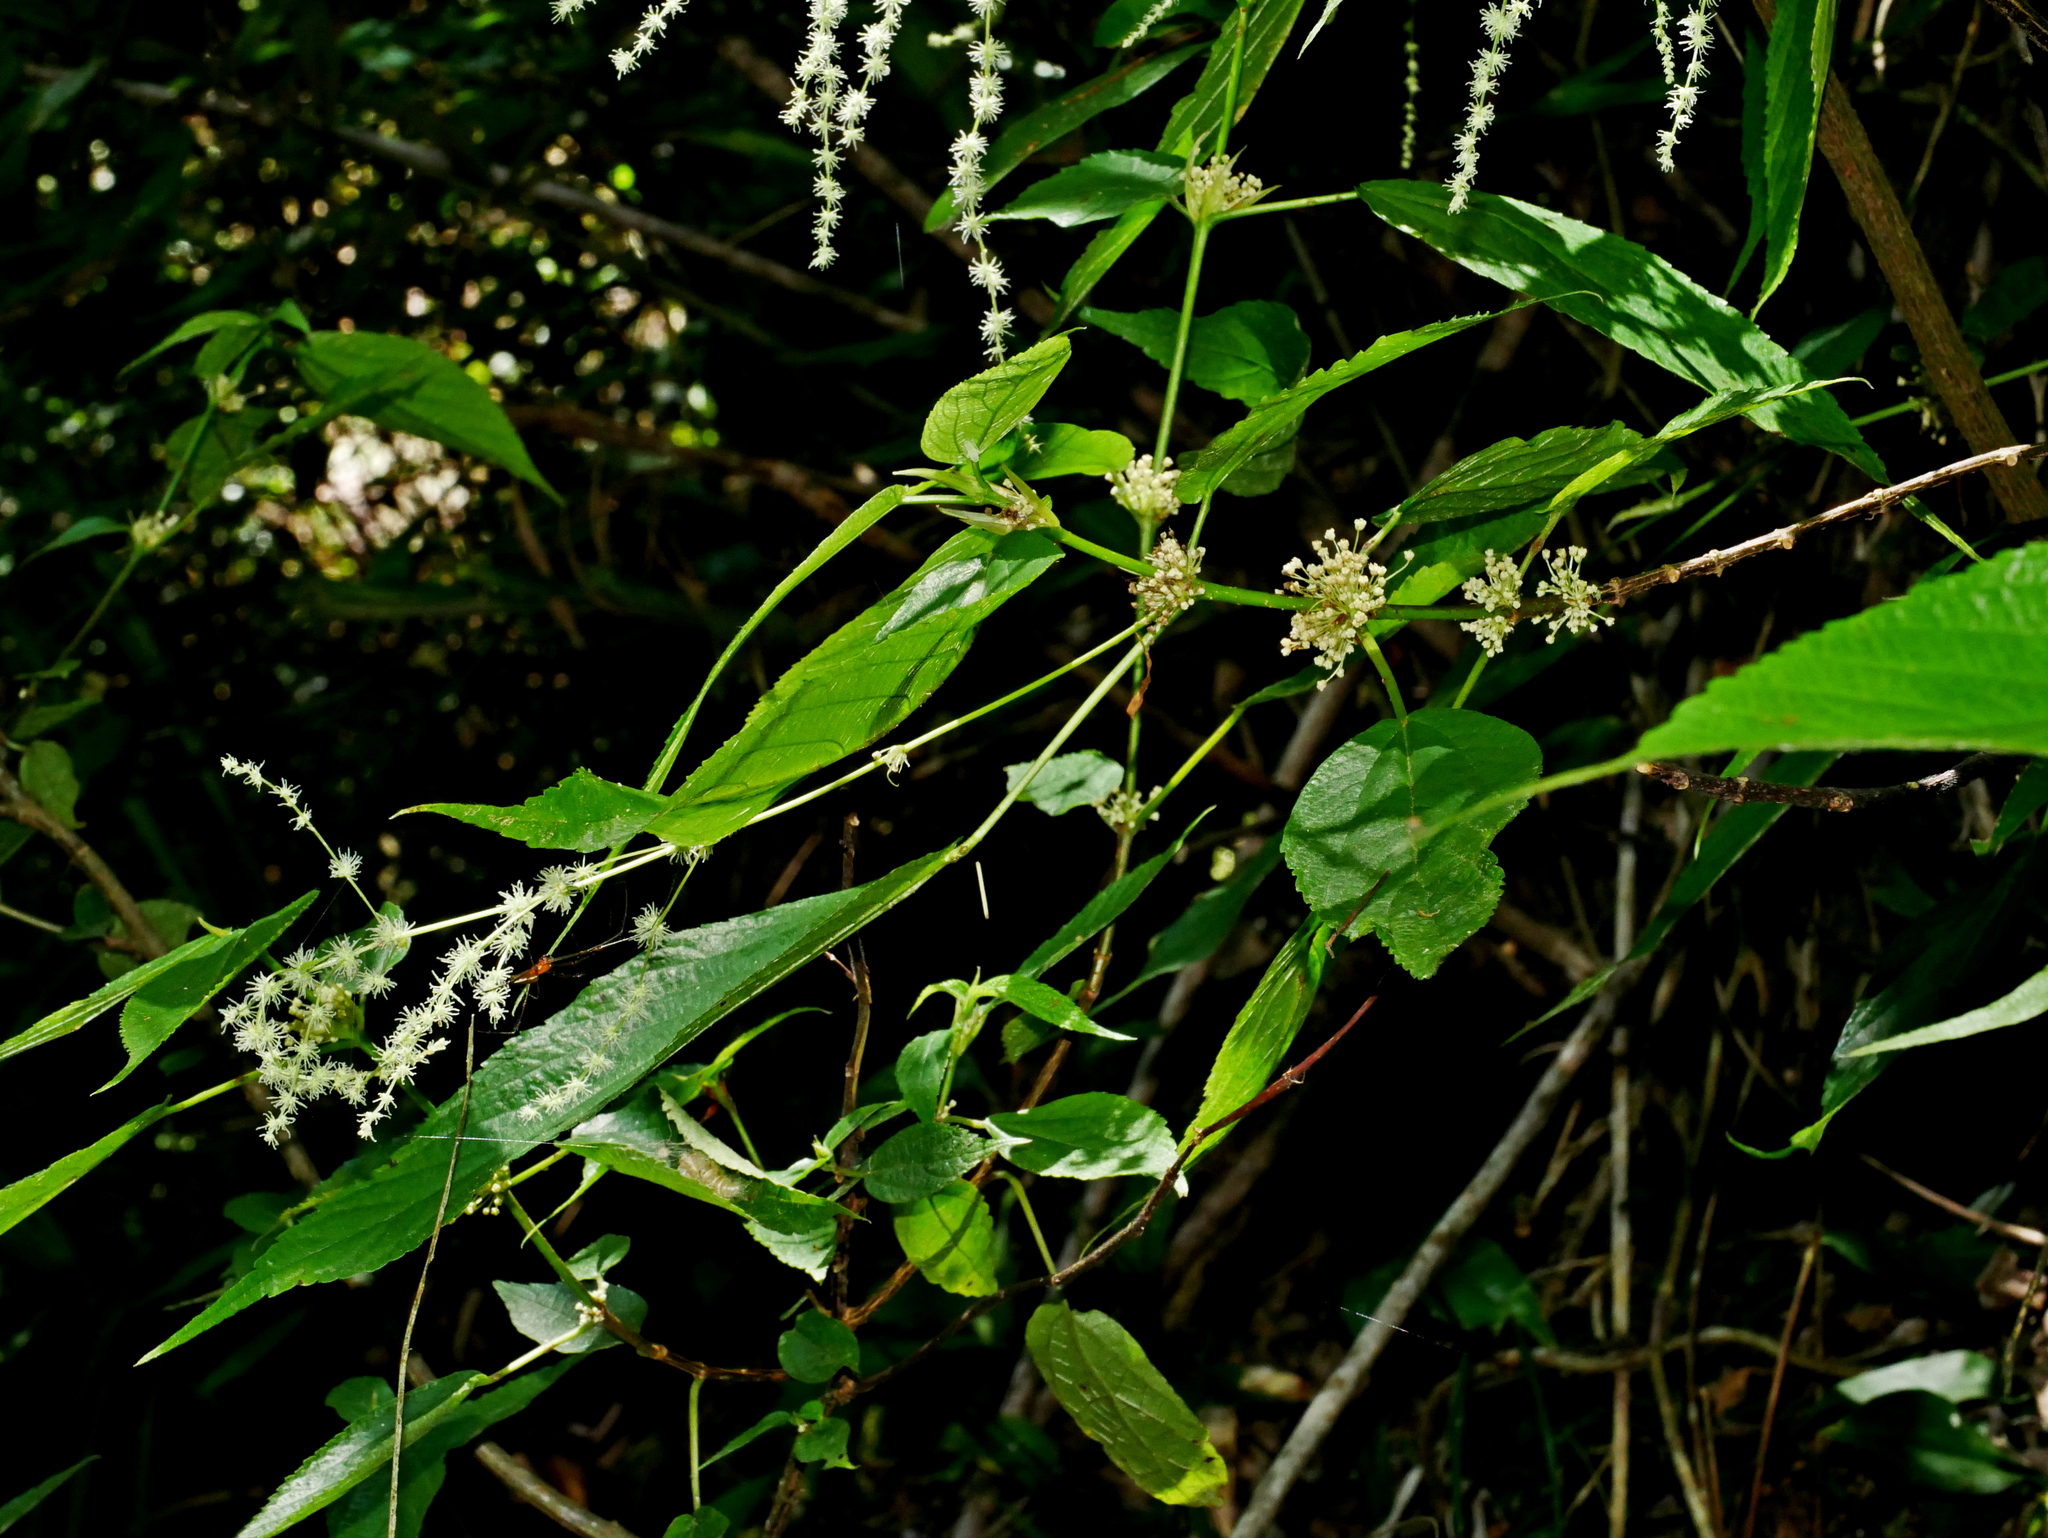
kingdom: Plantae
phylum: Tracheophyta
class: Magnoliopsida
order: Rosales
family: Urticaceae
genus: Boehmeria
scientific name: Boehmeria zollingeriana
